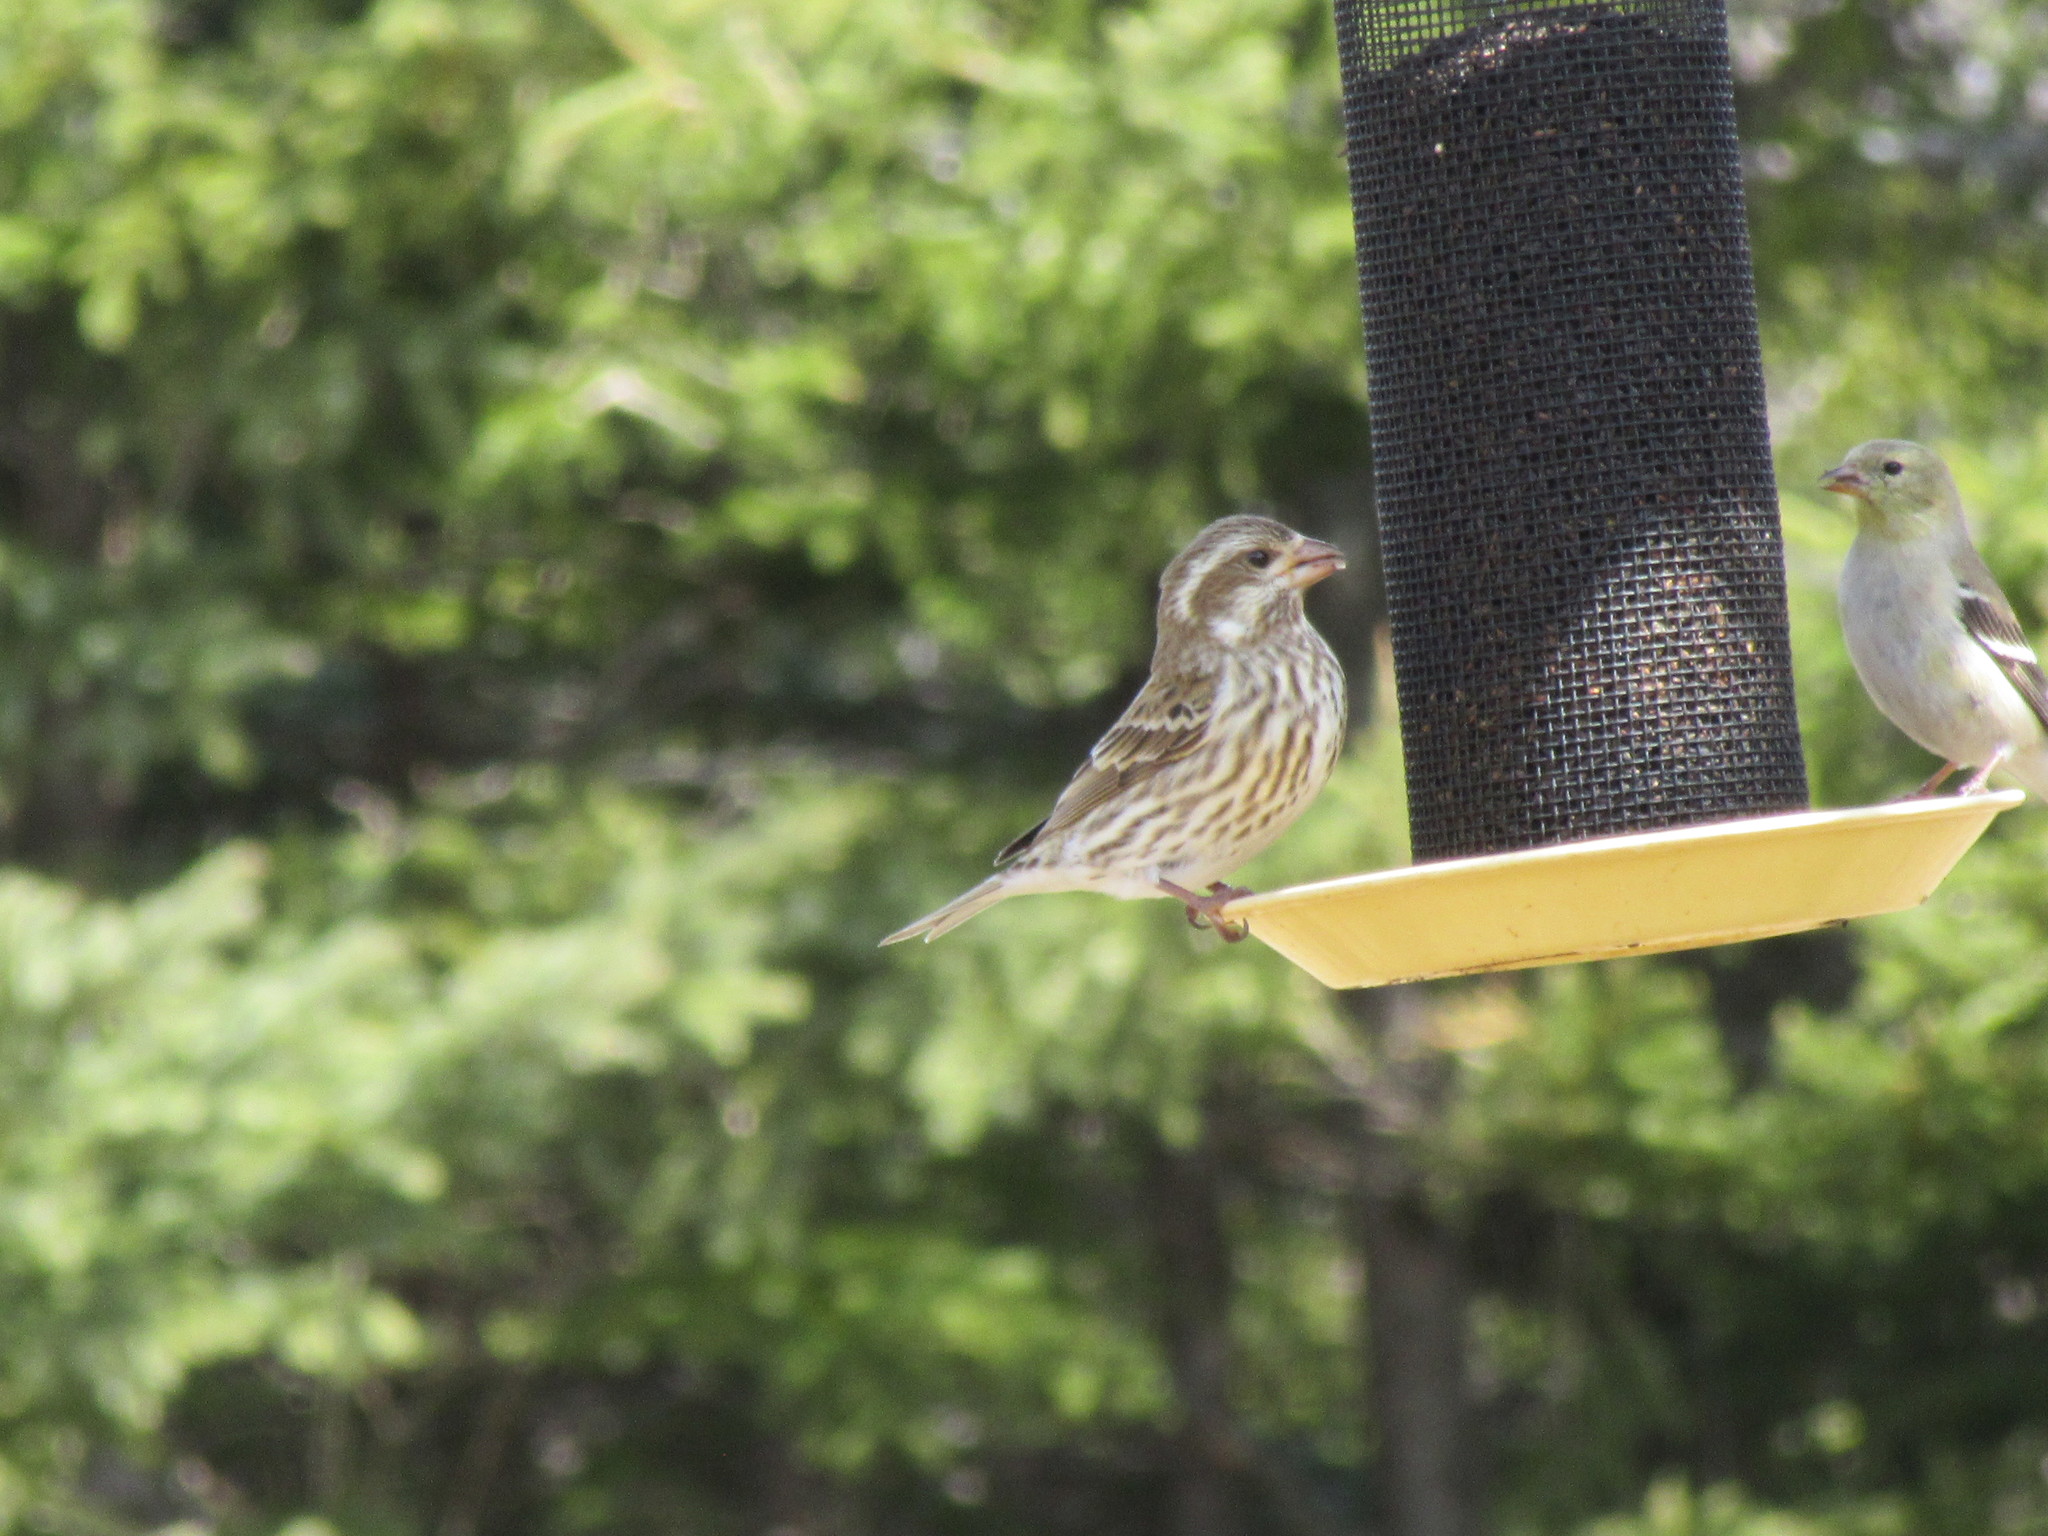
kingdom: Animalia
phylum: Chordata
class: Aves
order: Passeriformes
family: Fringillidae
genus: Haemorhous
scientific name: Haemorhous purpureus
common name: Purple finch
